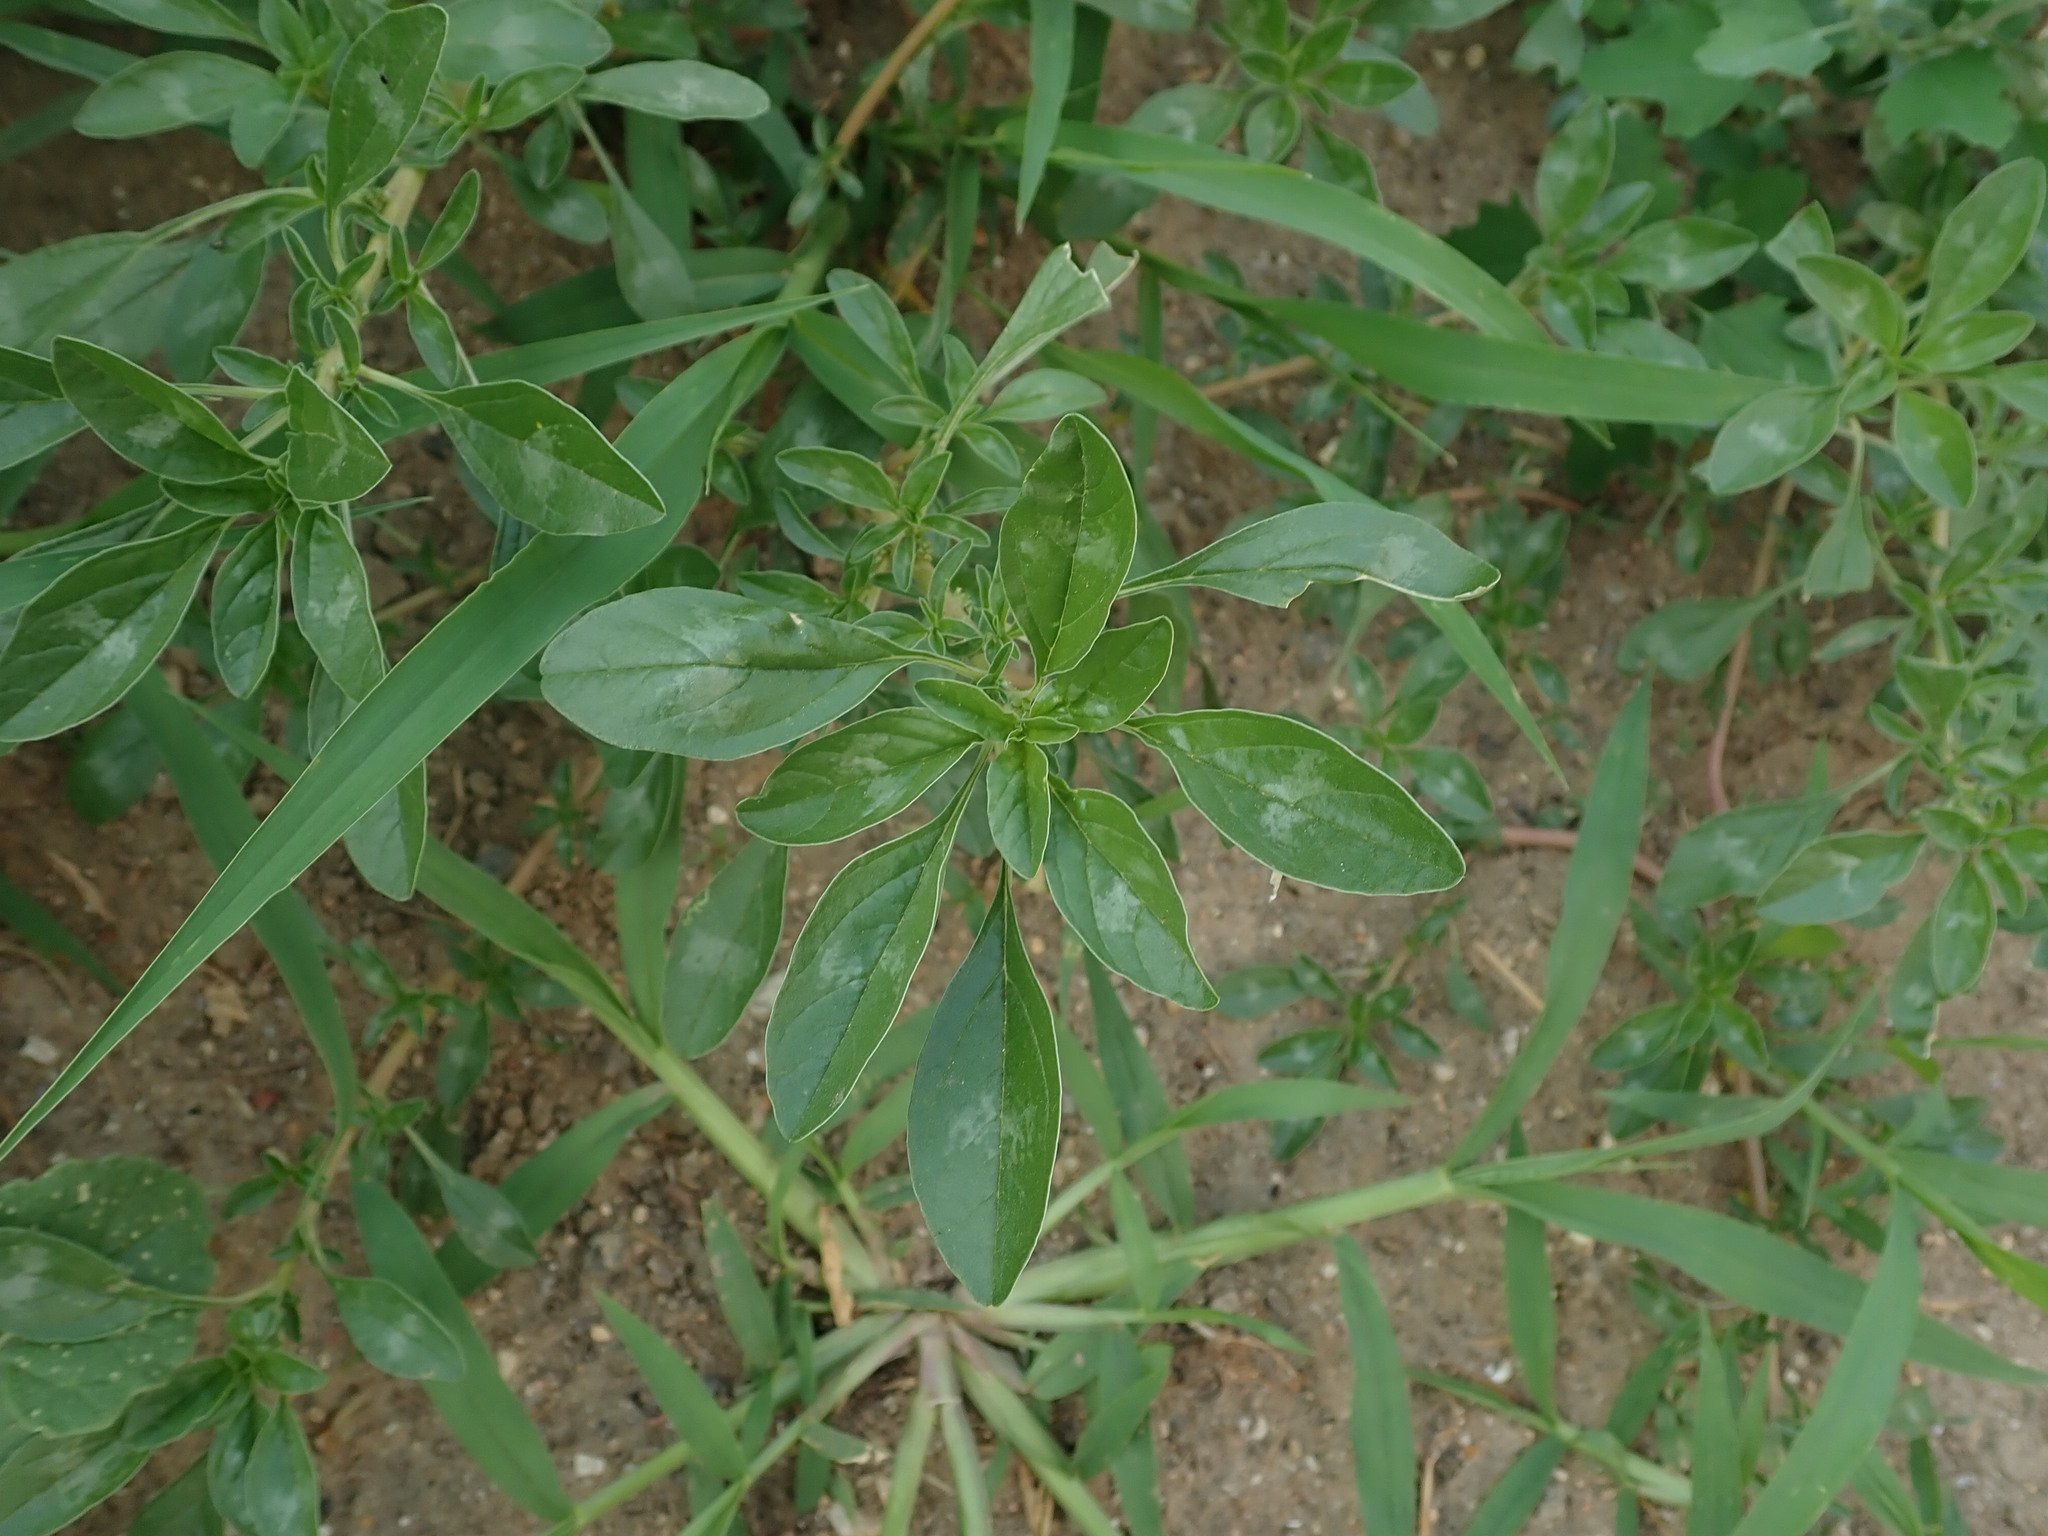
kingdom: Plantae
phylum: Tracheophyta
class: Magnoliopsida
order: Caryophyllales
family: Amaranthaceae
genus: Amaranthus
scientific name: Amaranthus blitoides
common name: Prostrate pigweed
